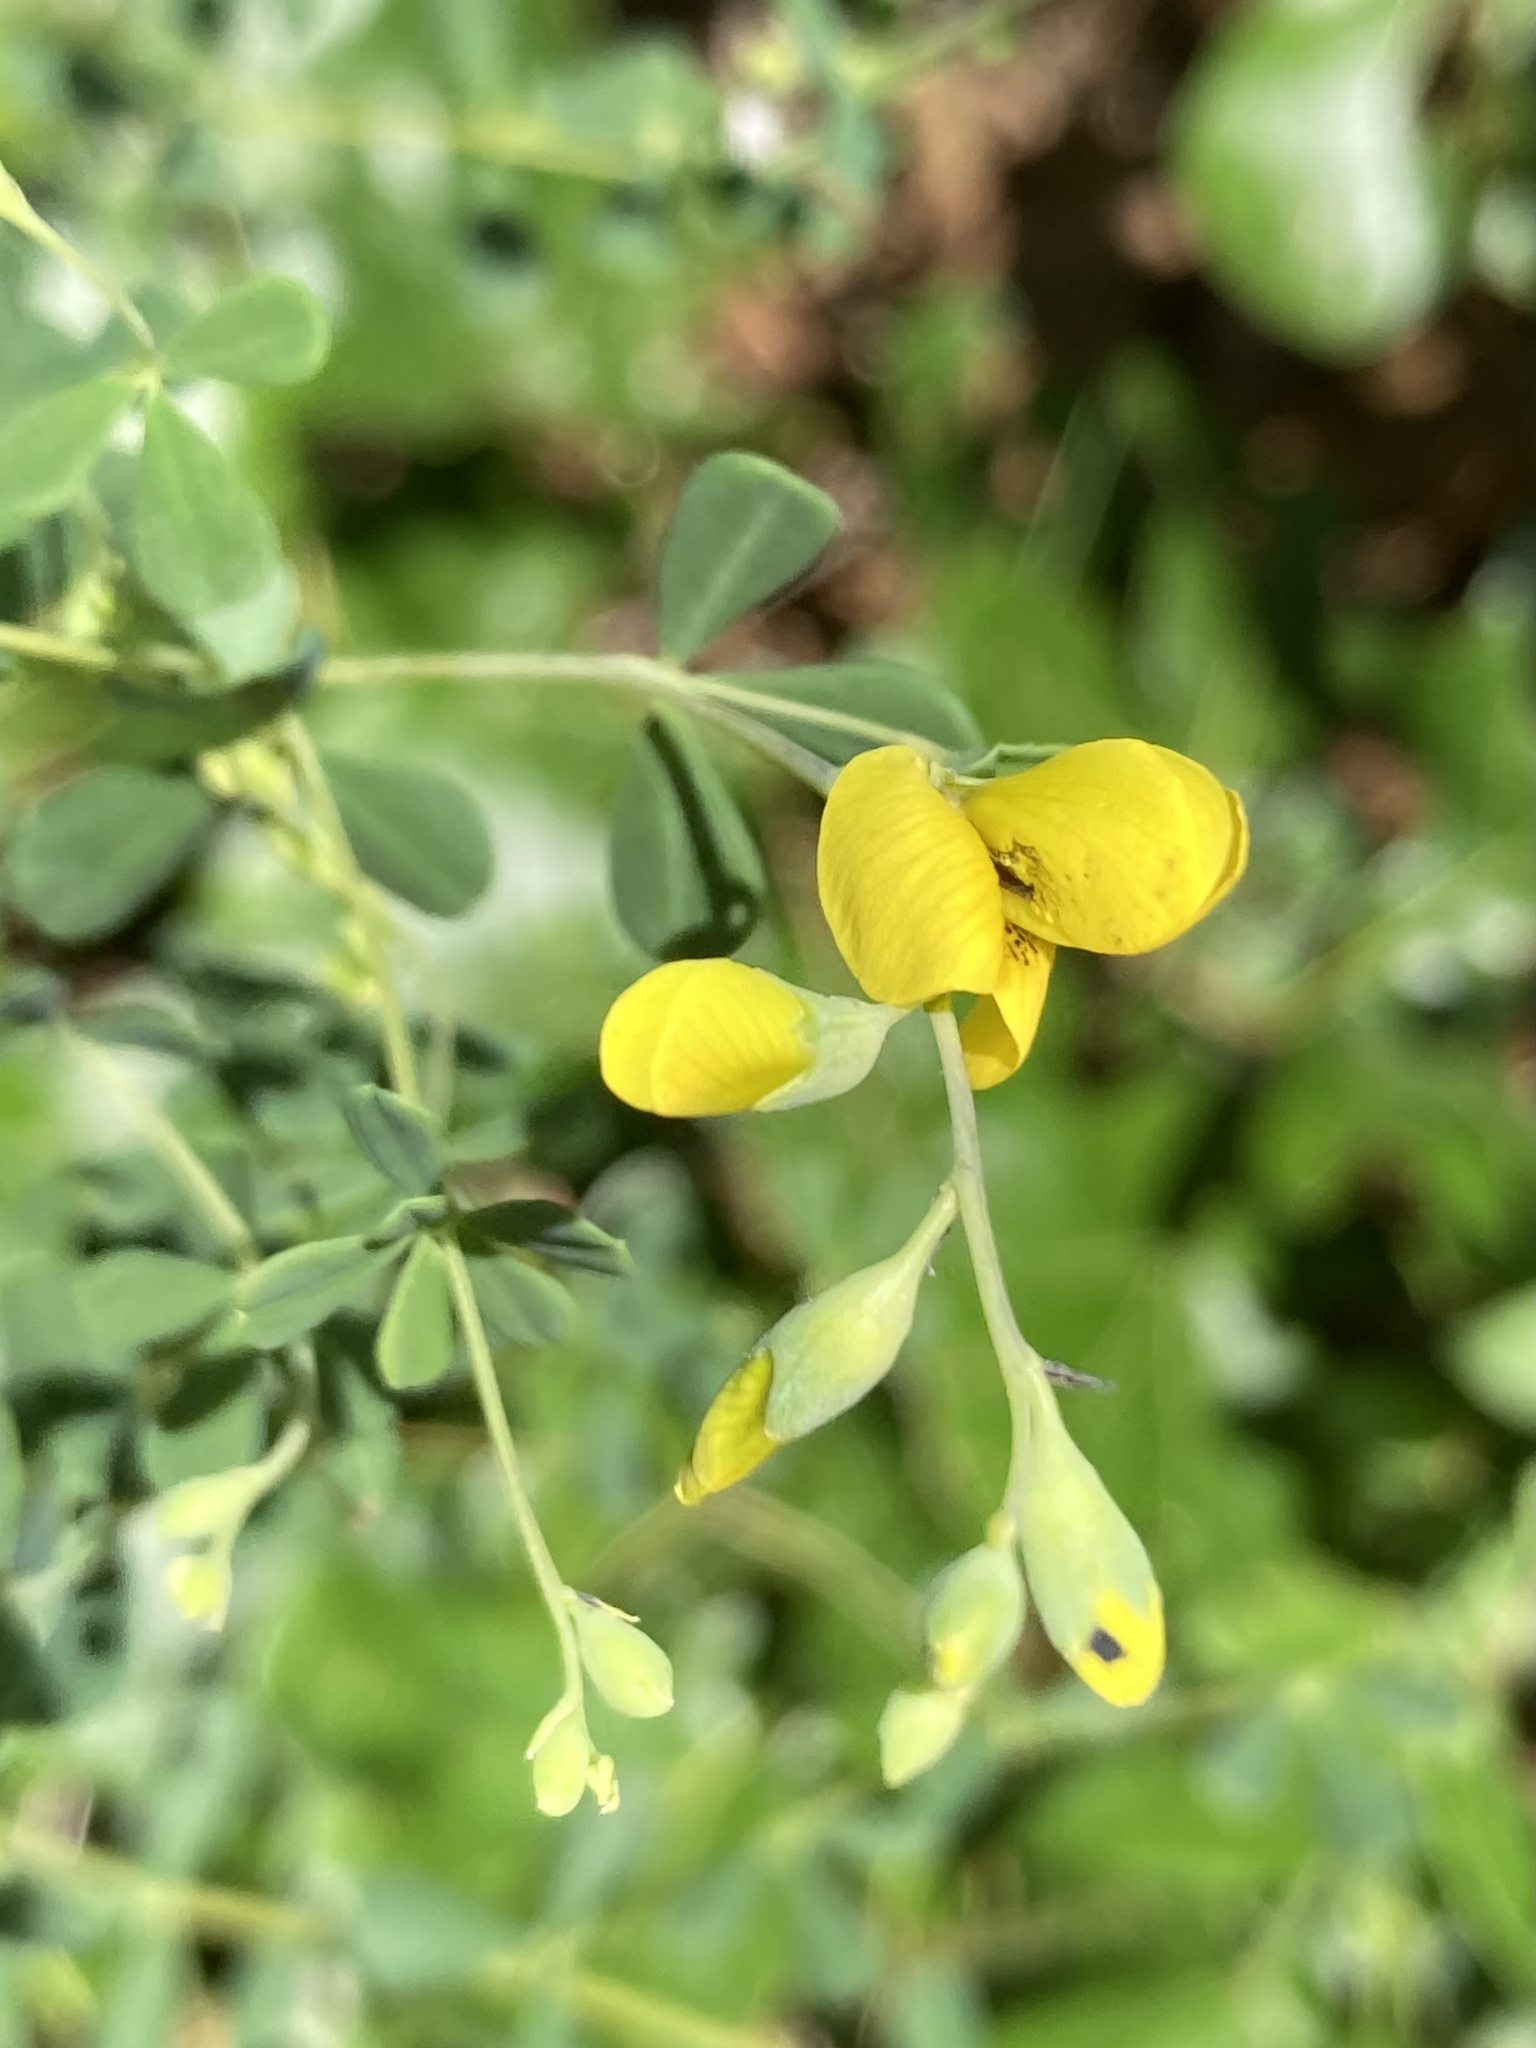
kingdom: Plantae
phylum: Tracheophyta
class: Magnoliopsida
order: Fabales
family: Fabaceae
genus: Baptisia
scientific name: Baptisia tinctoria
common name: Wild indigo
